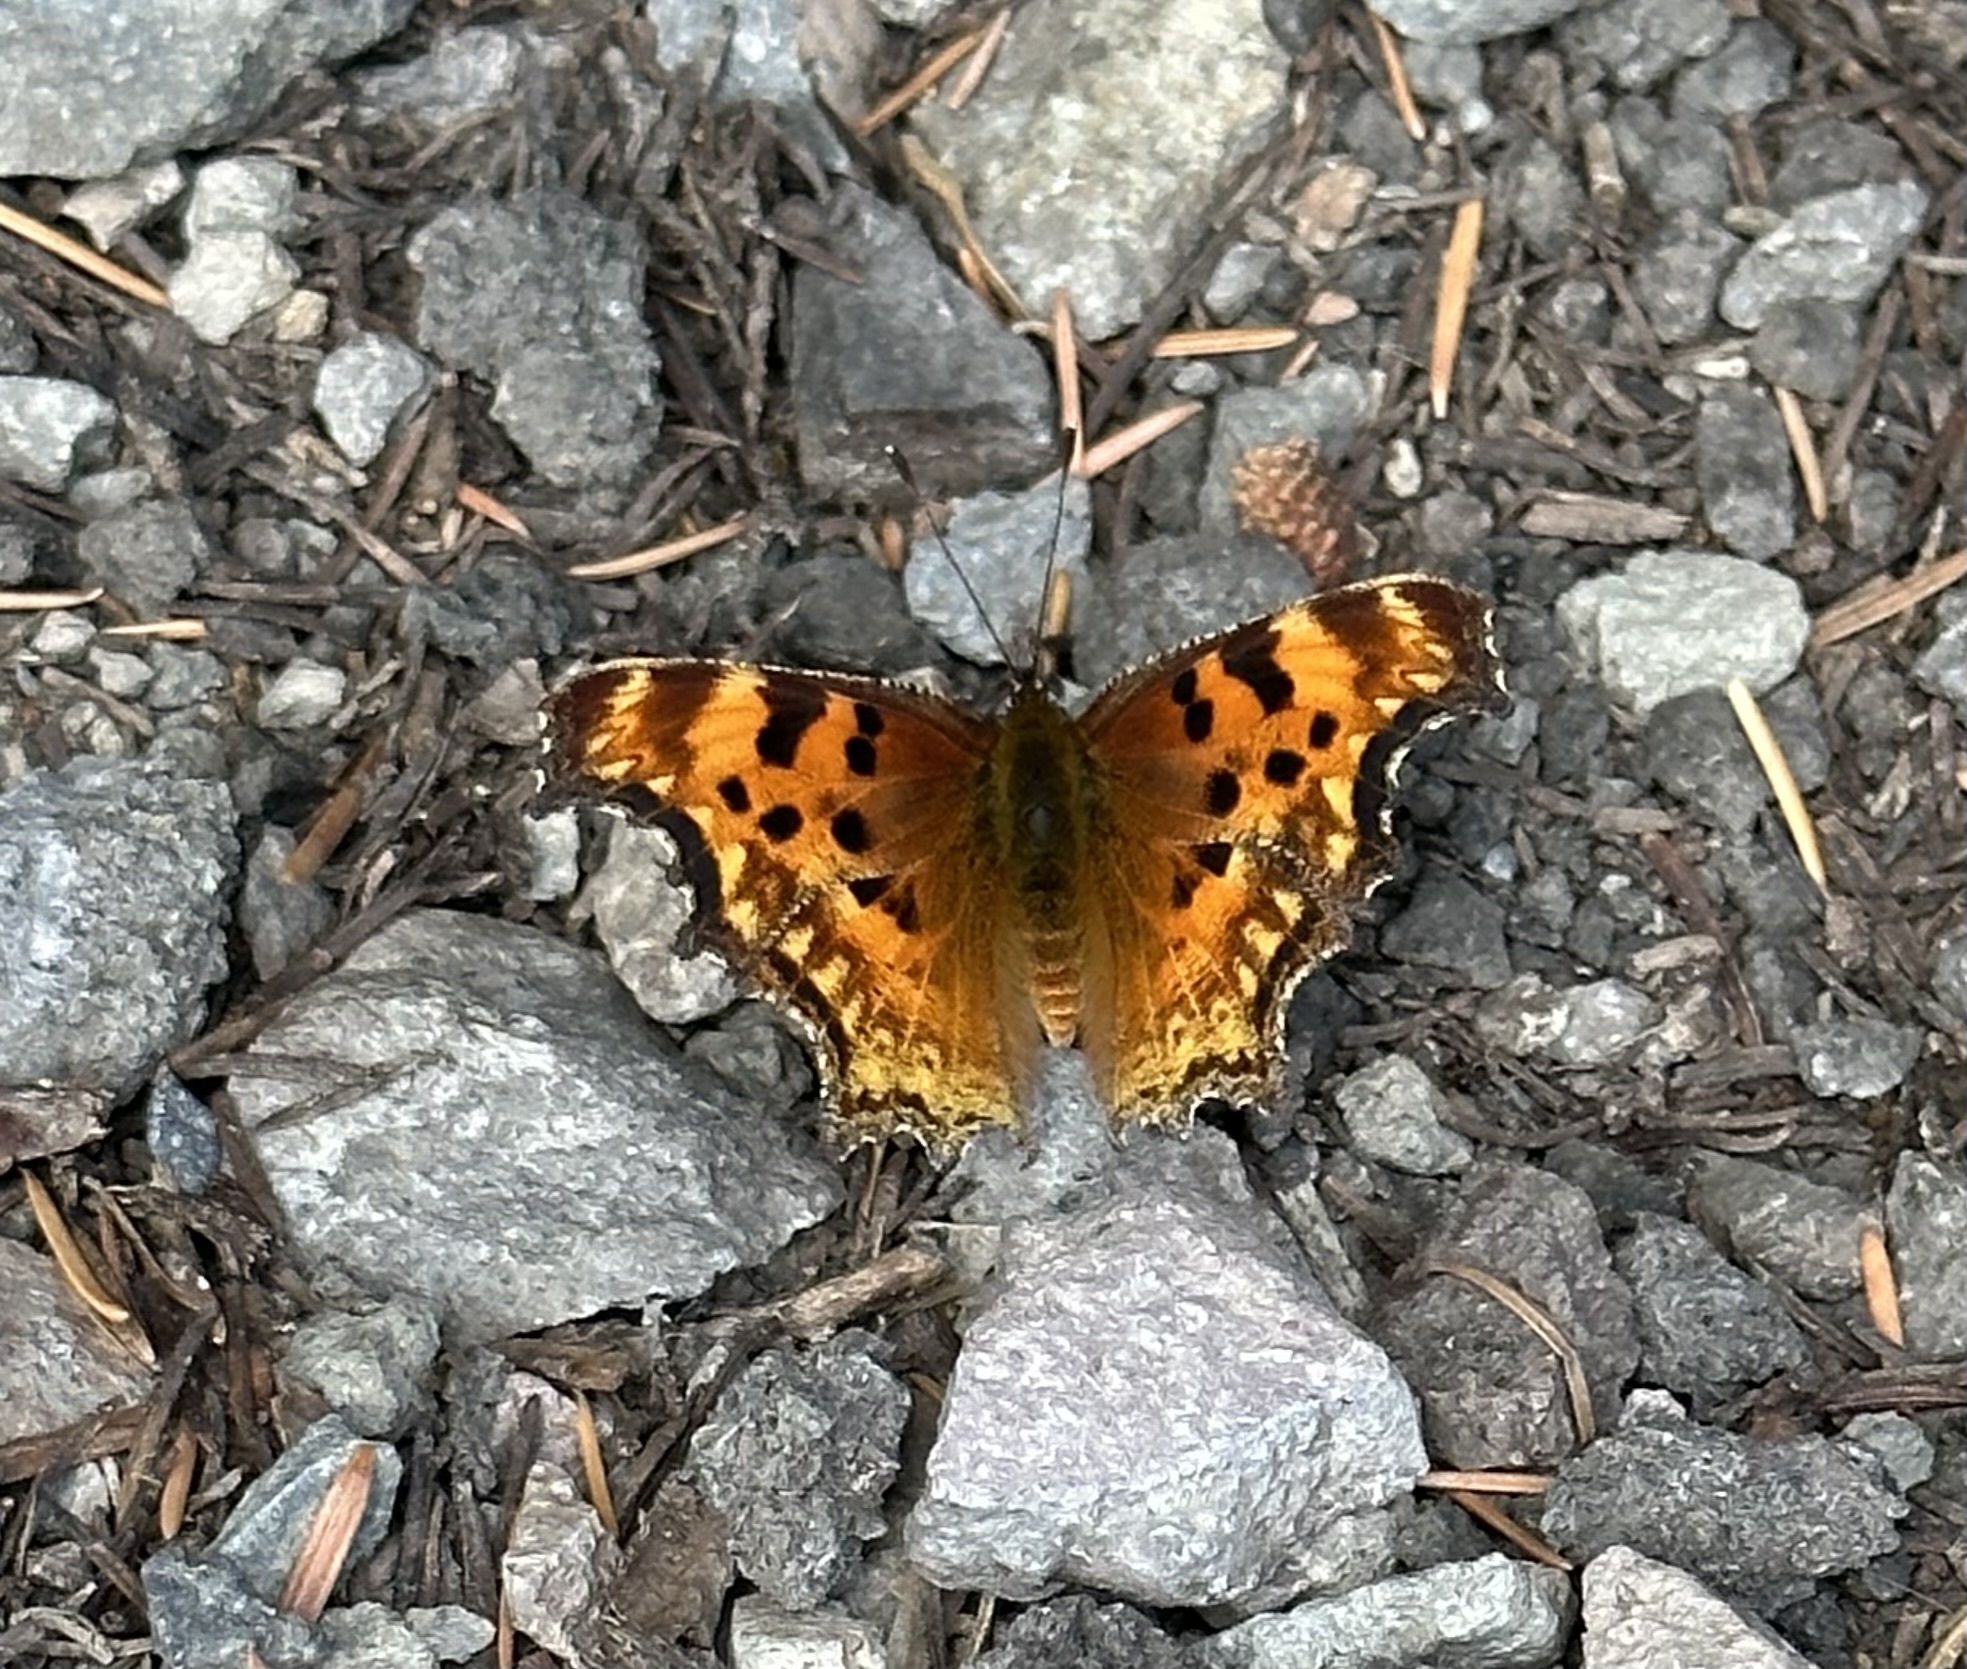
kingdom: Animalia
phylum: Arthropoda
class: Insecta
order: Lepidoptera
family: Nymphalidae
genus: Polygonia
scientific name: Polygonia gracilis
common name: Hoary comma
